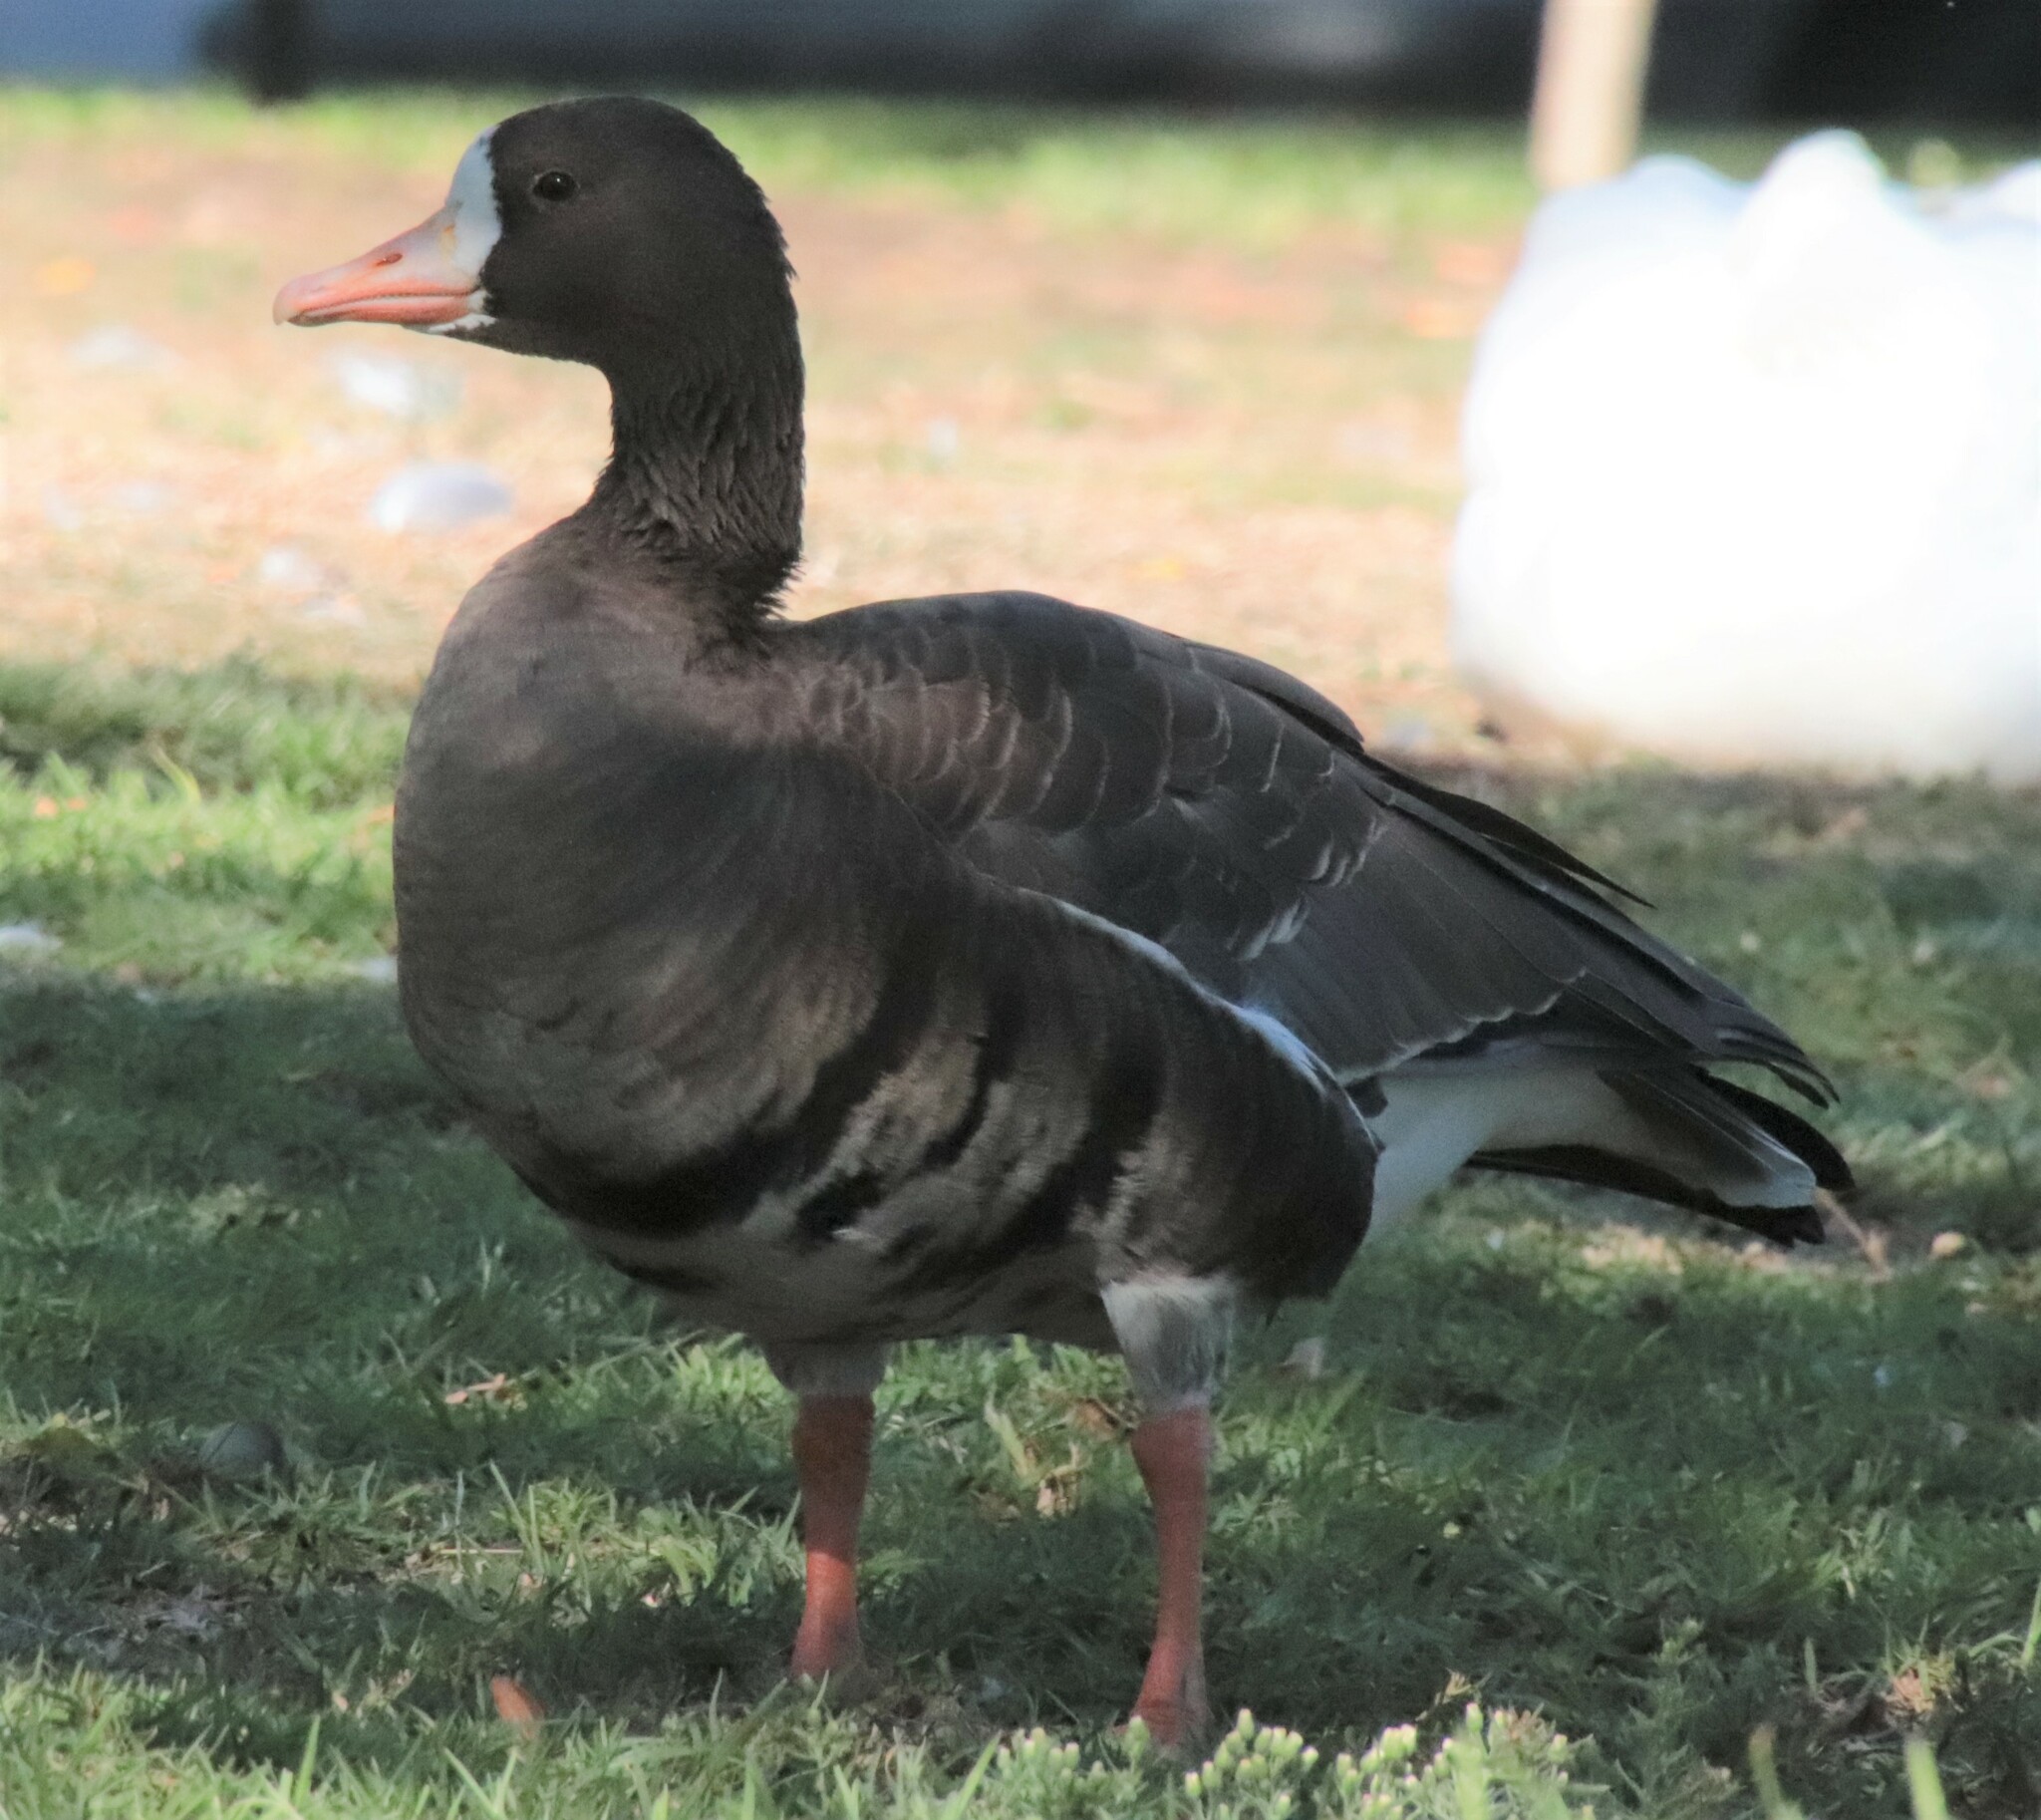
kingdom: Animalia
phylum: Chordata
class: Aves
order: Anseriformes
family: Anatidae
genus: Anser
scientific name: Anser albifrons
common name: Greater white-fronted goose
